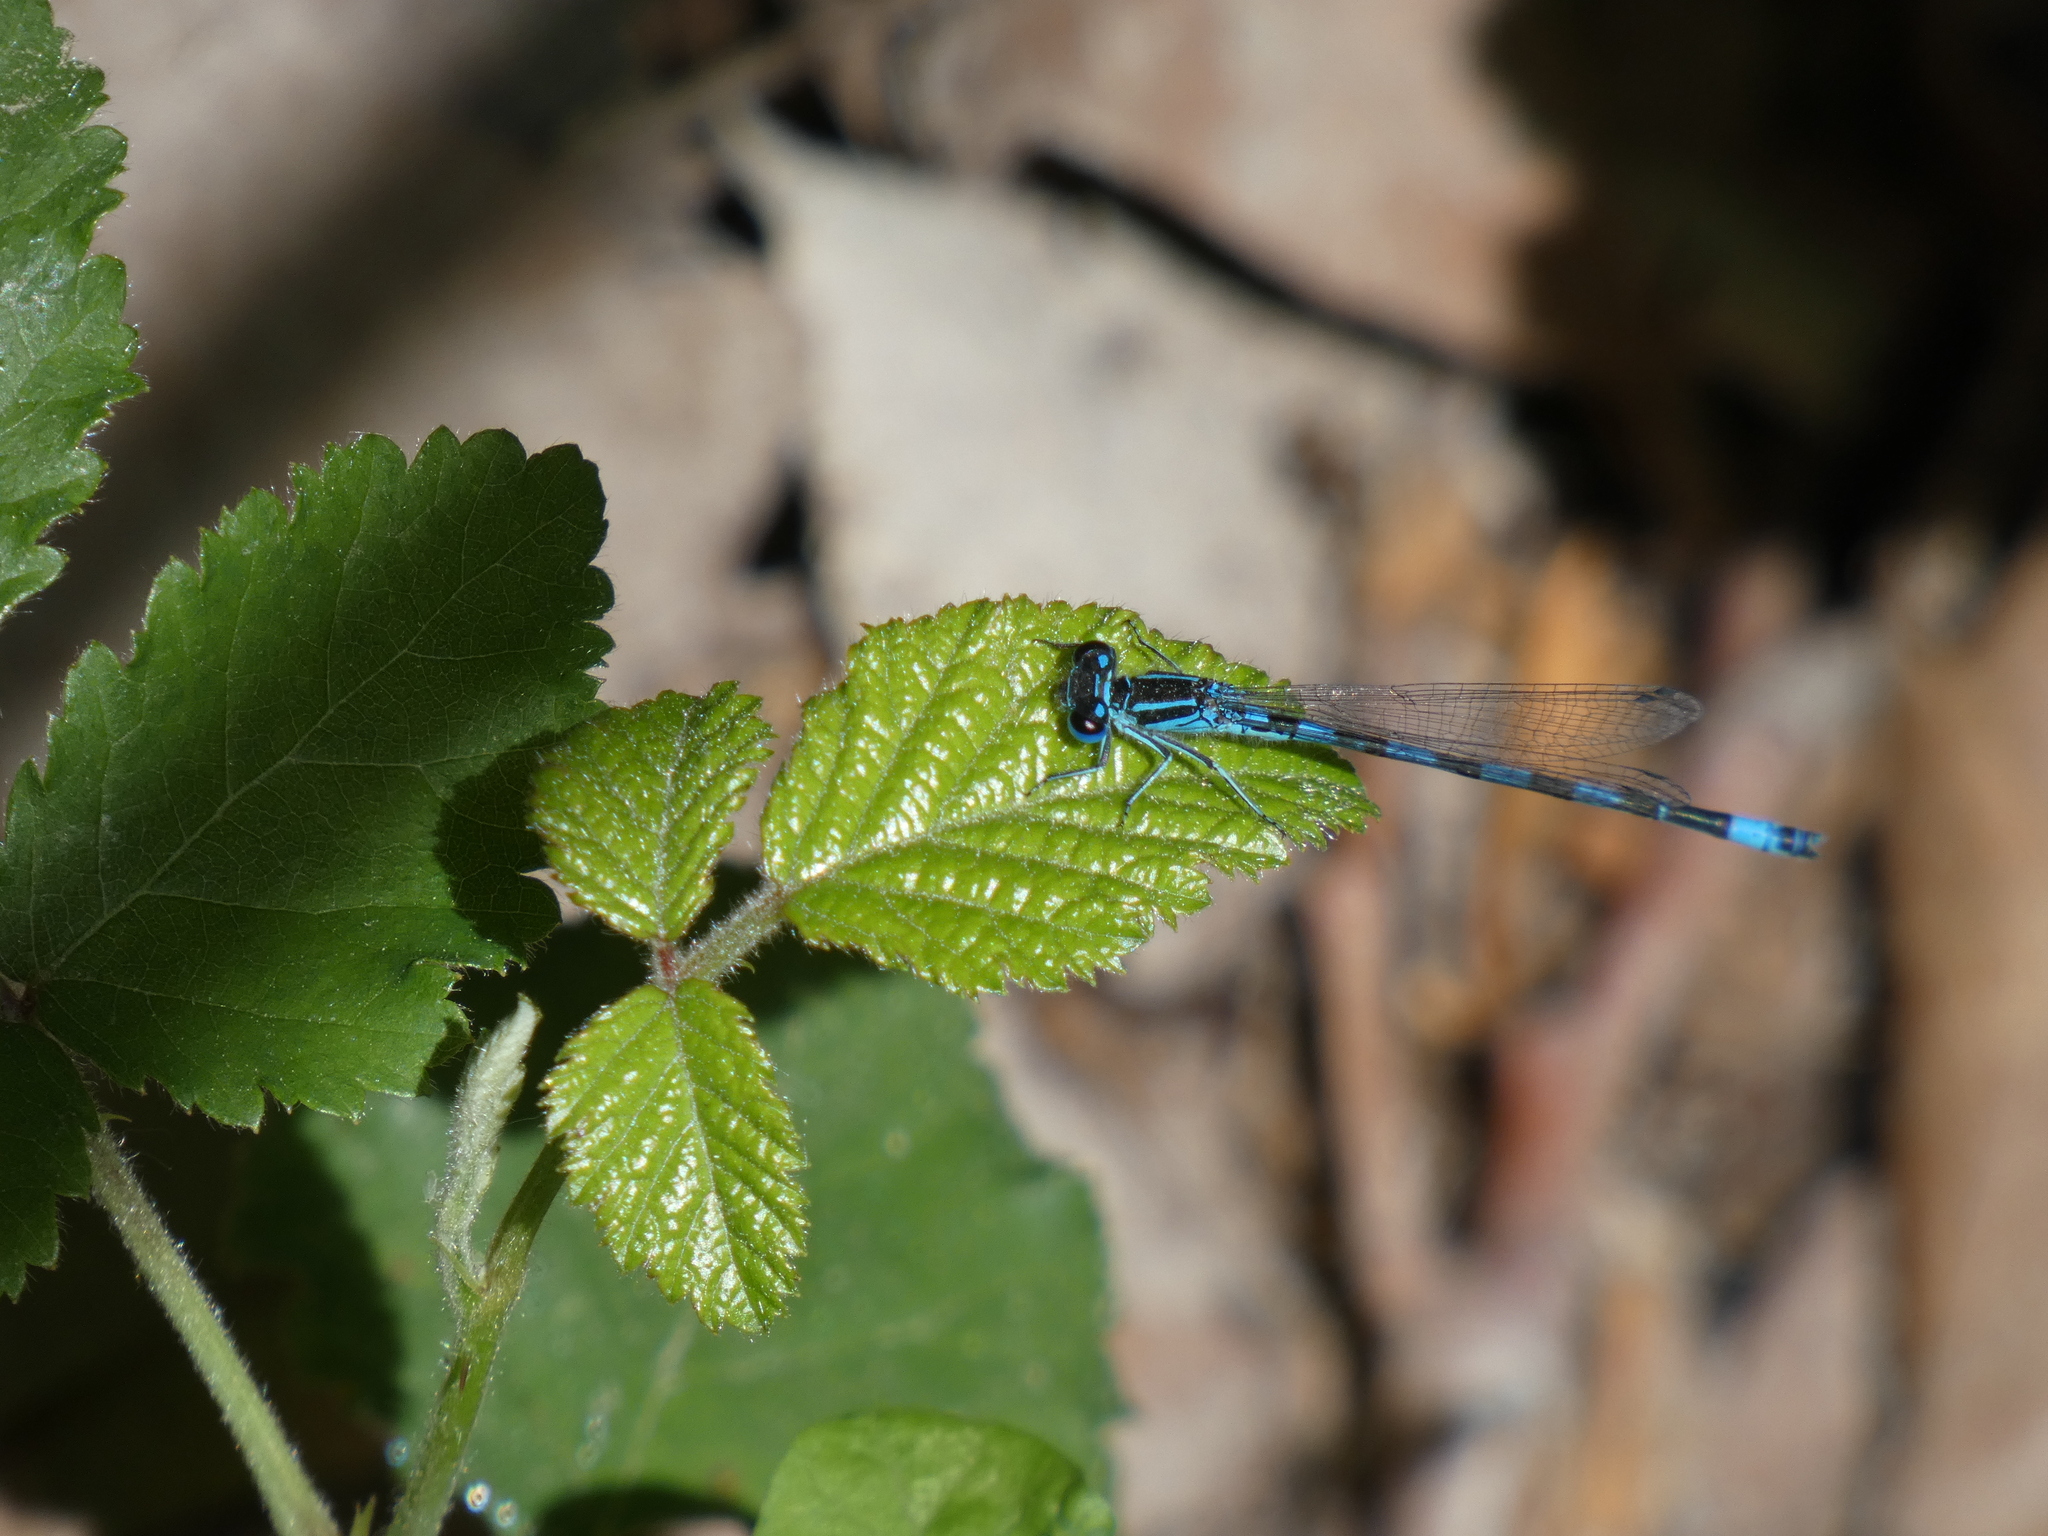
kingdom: Animalia
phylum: Arthropoda
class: Insecta
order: Odonata
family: Coenagrionidae
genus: Coenagrion
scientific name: Coenagrion mercuriale
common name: Southern damselfly
